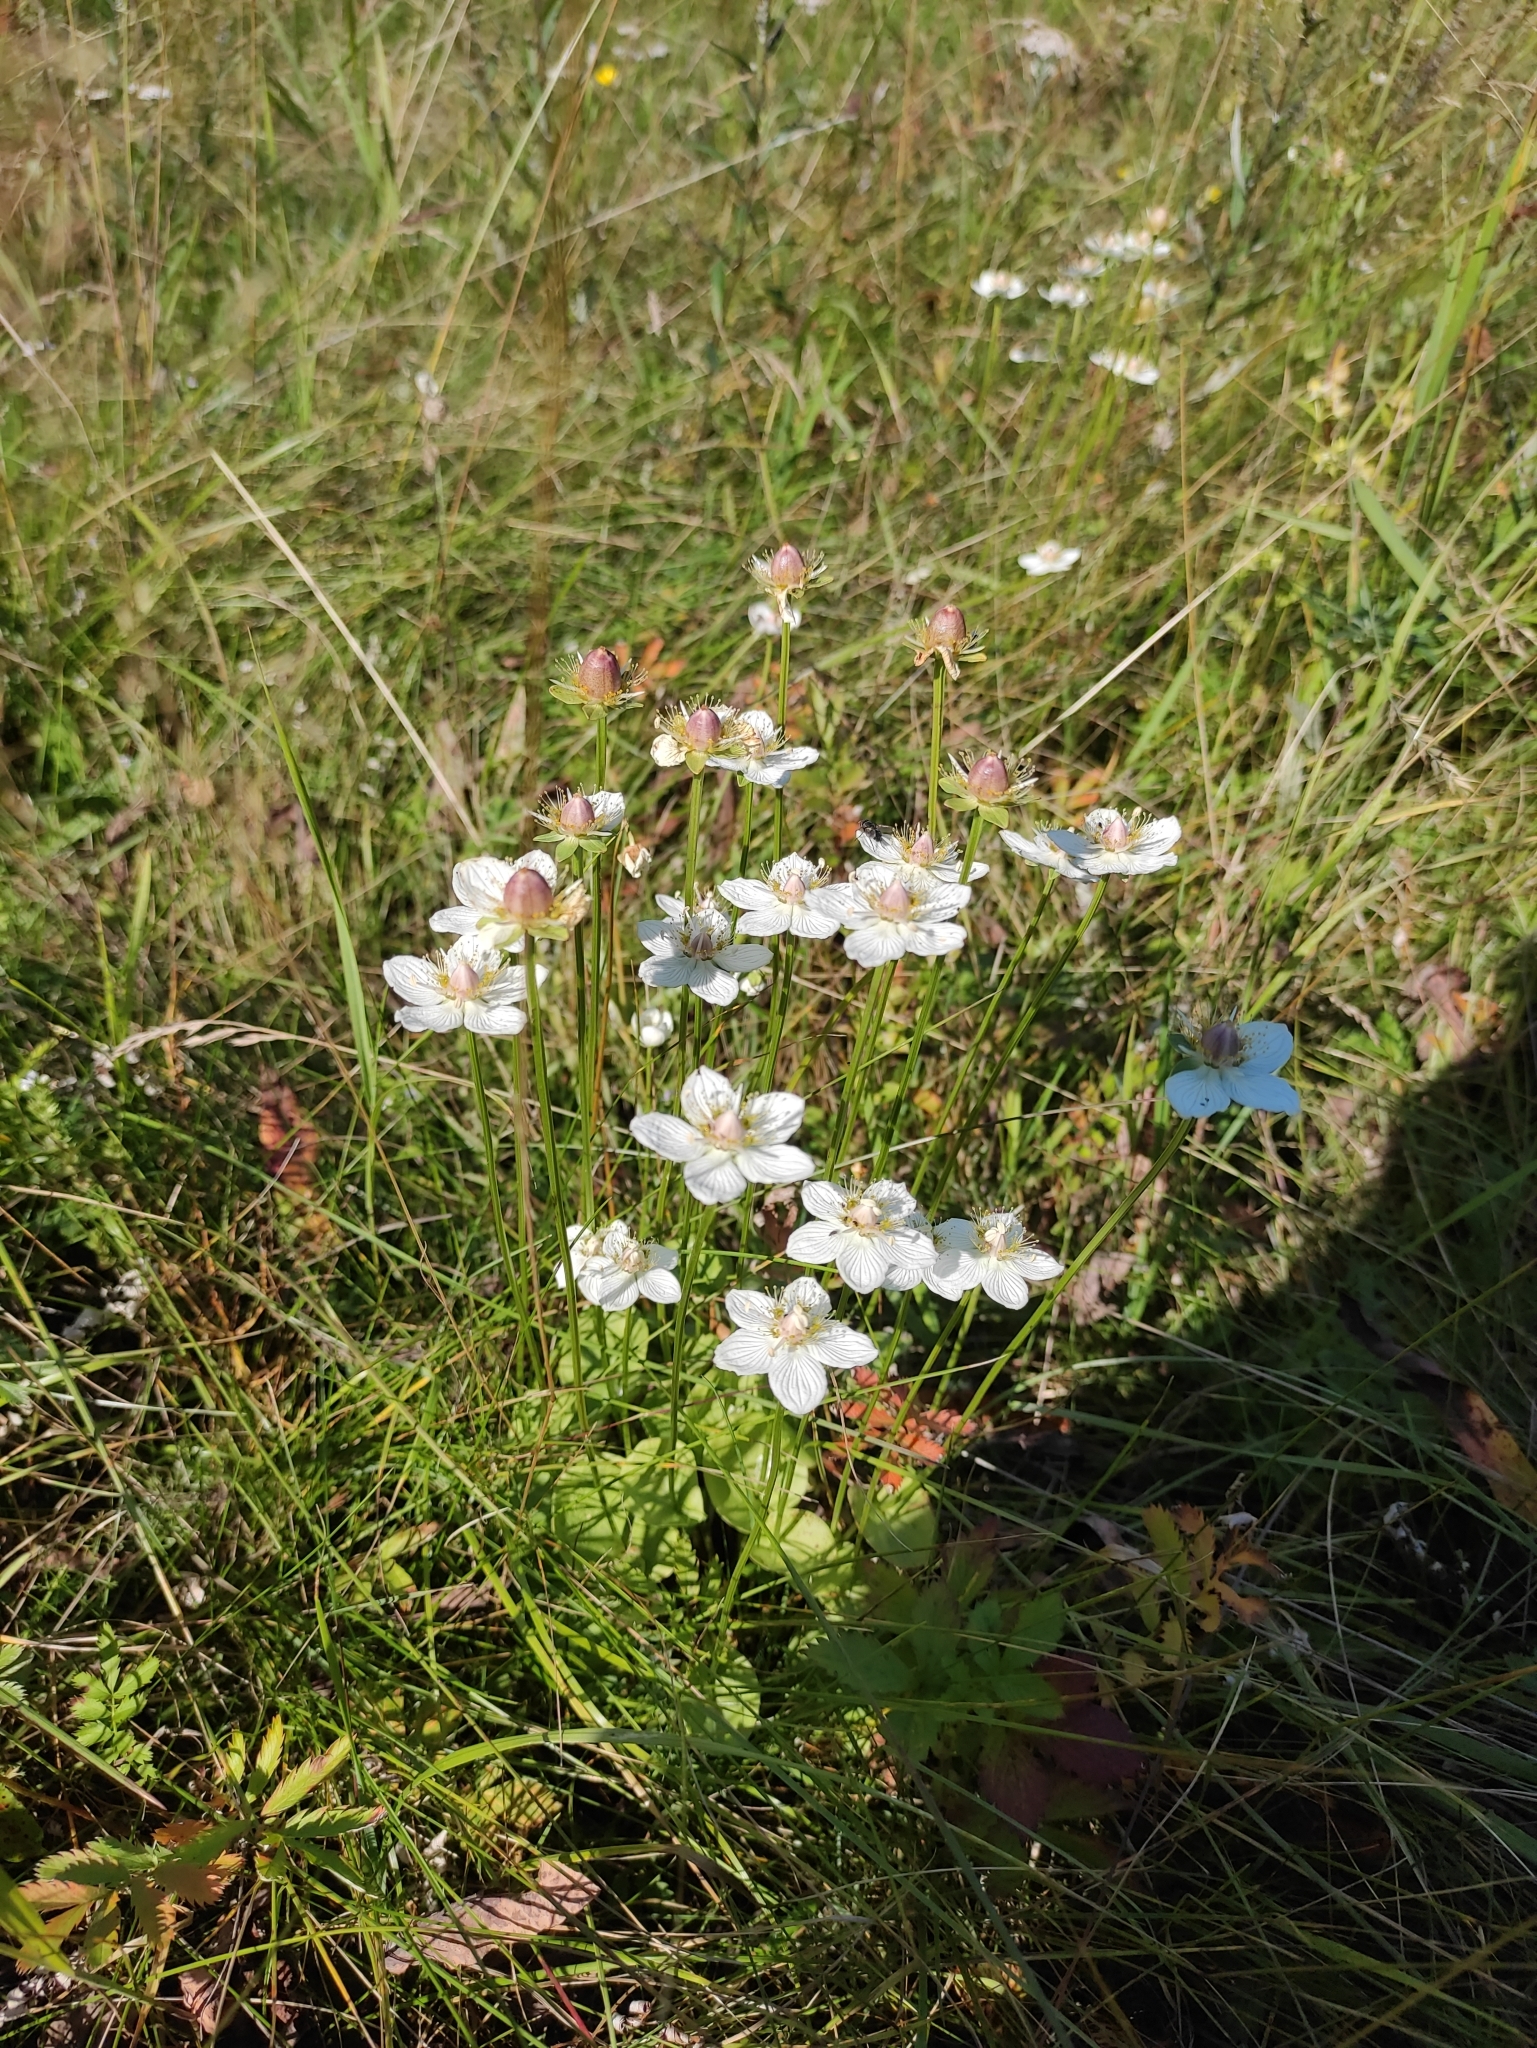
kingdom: Plantae
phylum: Tracheophyta
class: Magnoliopsida
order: Celastrales
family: Parnassiaceae
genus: Parnassia
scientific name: Parnassia palustris
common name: Grass-of-parnassus
